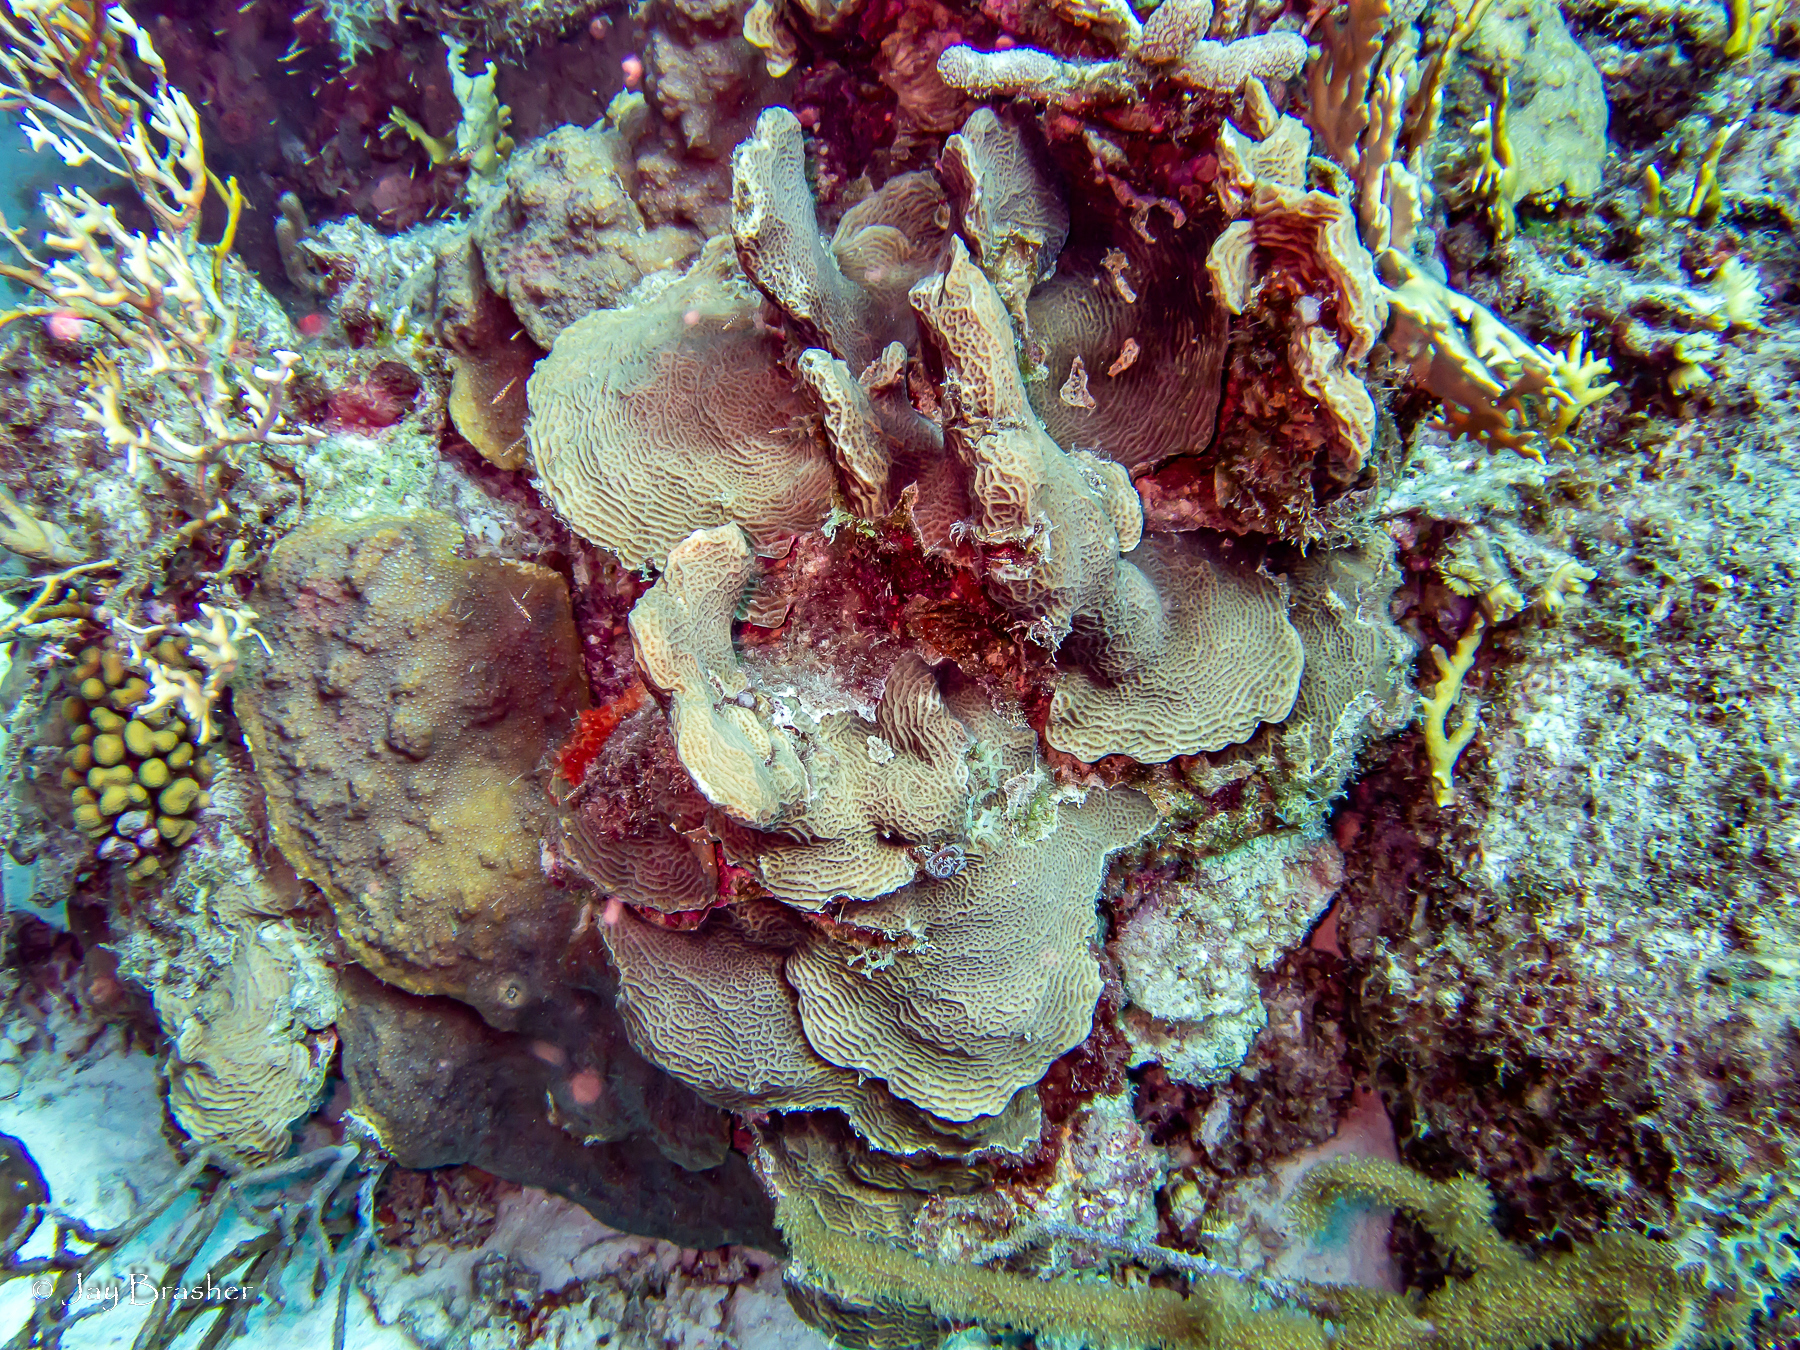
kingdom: Animalia
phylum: Cnidaria
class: Anthozoa
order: Scleractinia
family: Agariciidae
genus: Agaricia
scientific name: Agaricia agaricites
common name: Lettuce coral
